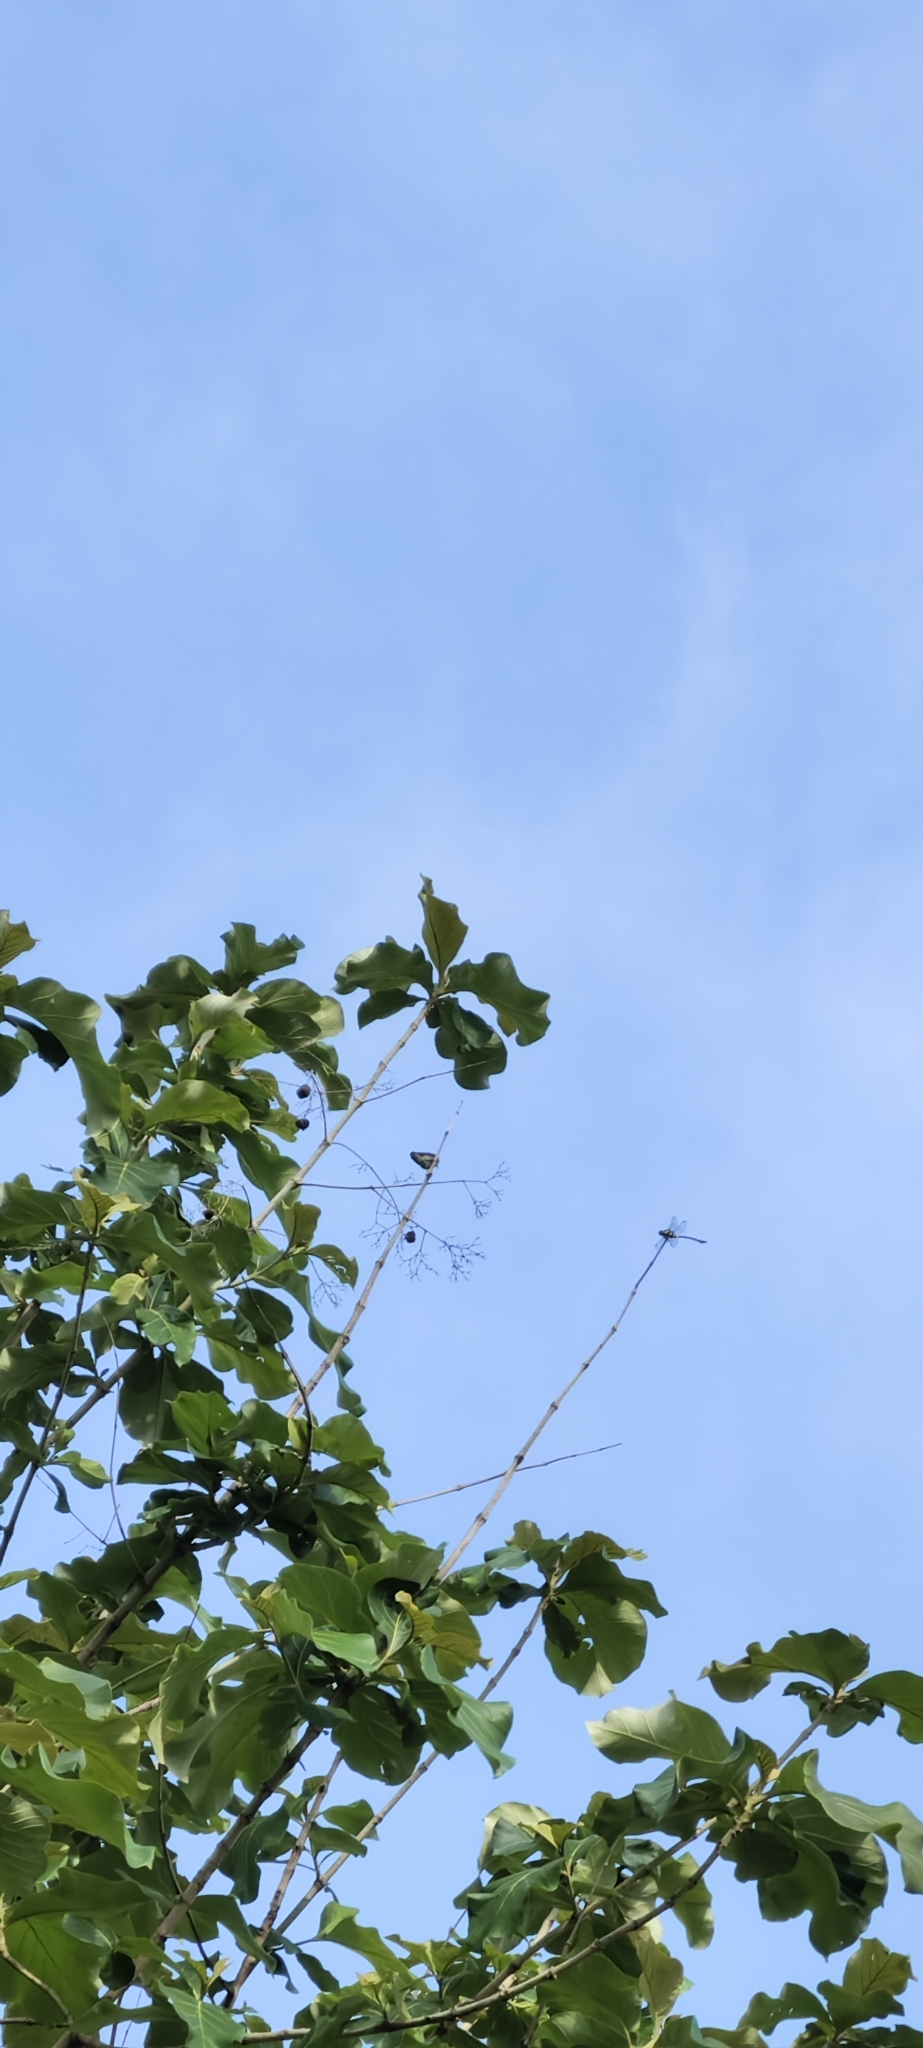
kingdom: Animalia
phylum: Arthropoda
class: Insecta
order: Odonata
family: Gomphidae
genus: Ictinogomphus
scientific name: Ictinogomphus rapax
